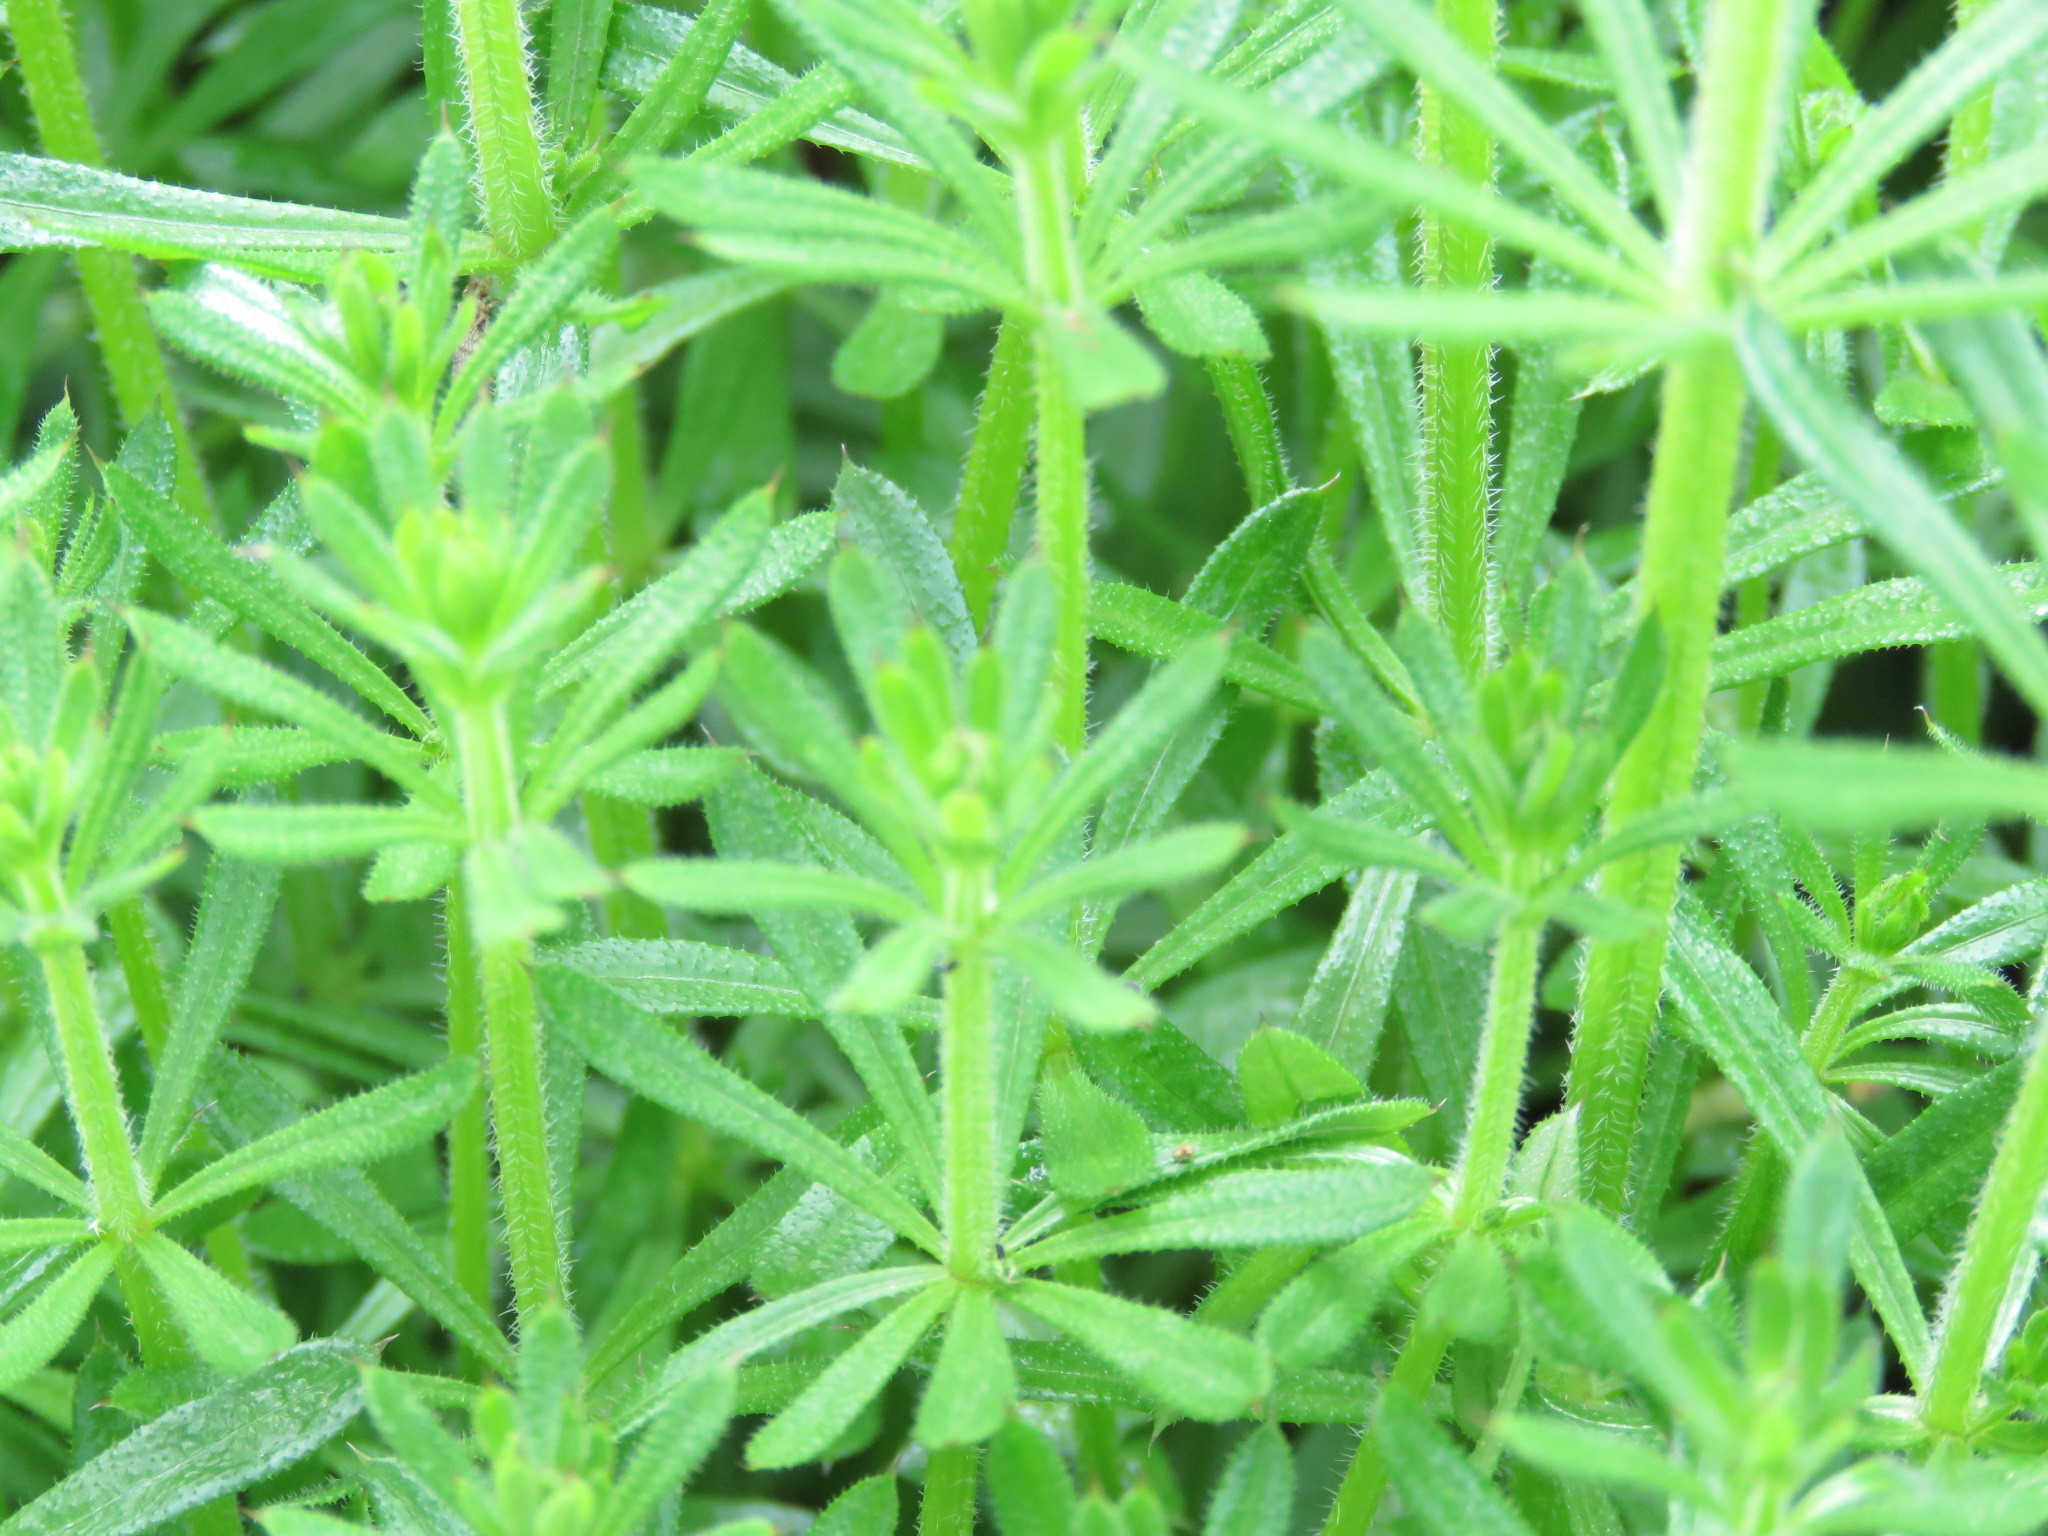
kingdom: Plantae
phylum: Tracheophyta
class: Magnoliopsida
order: Gentianales
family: Rubiaceae
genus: Galium
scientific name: Galium aparine
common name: Cleavers
